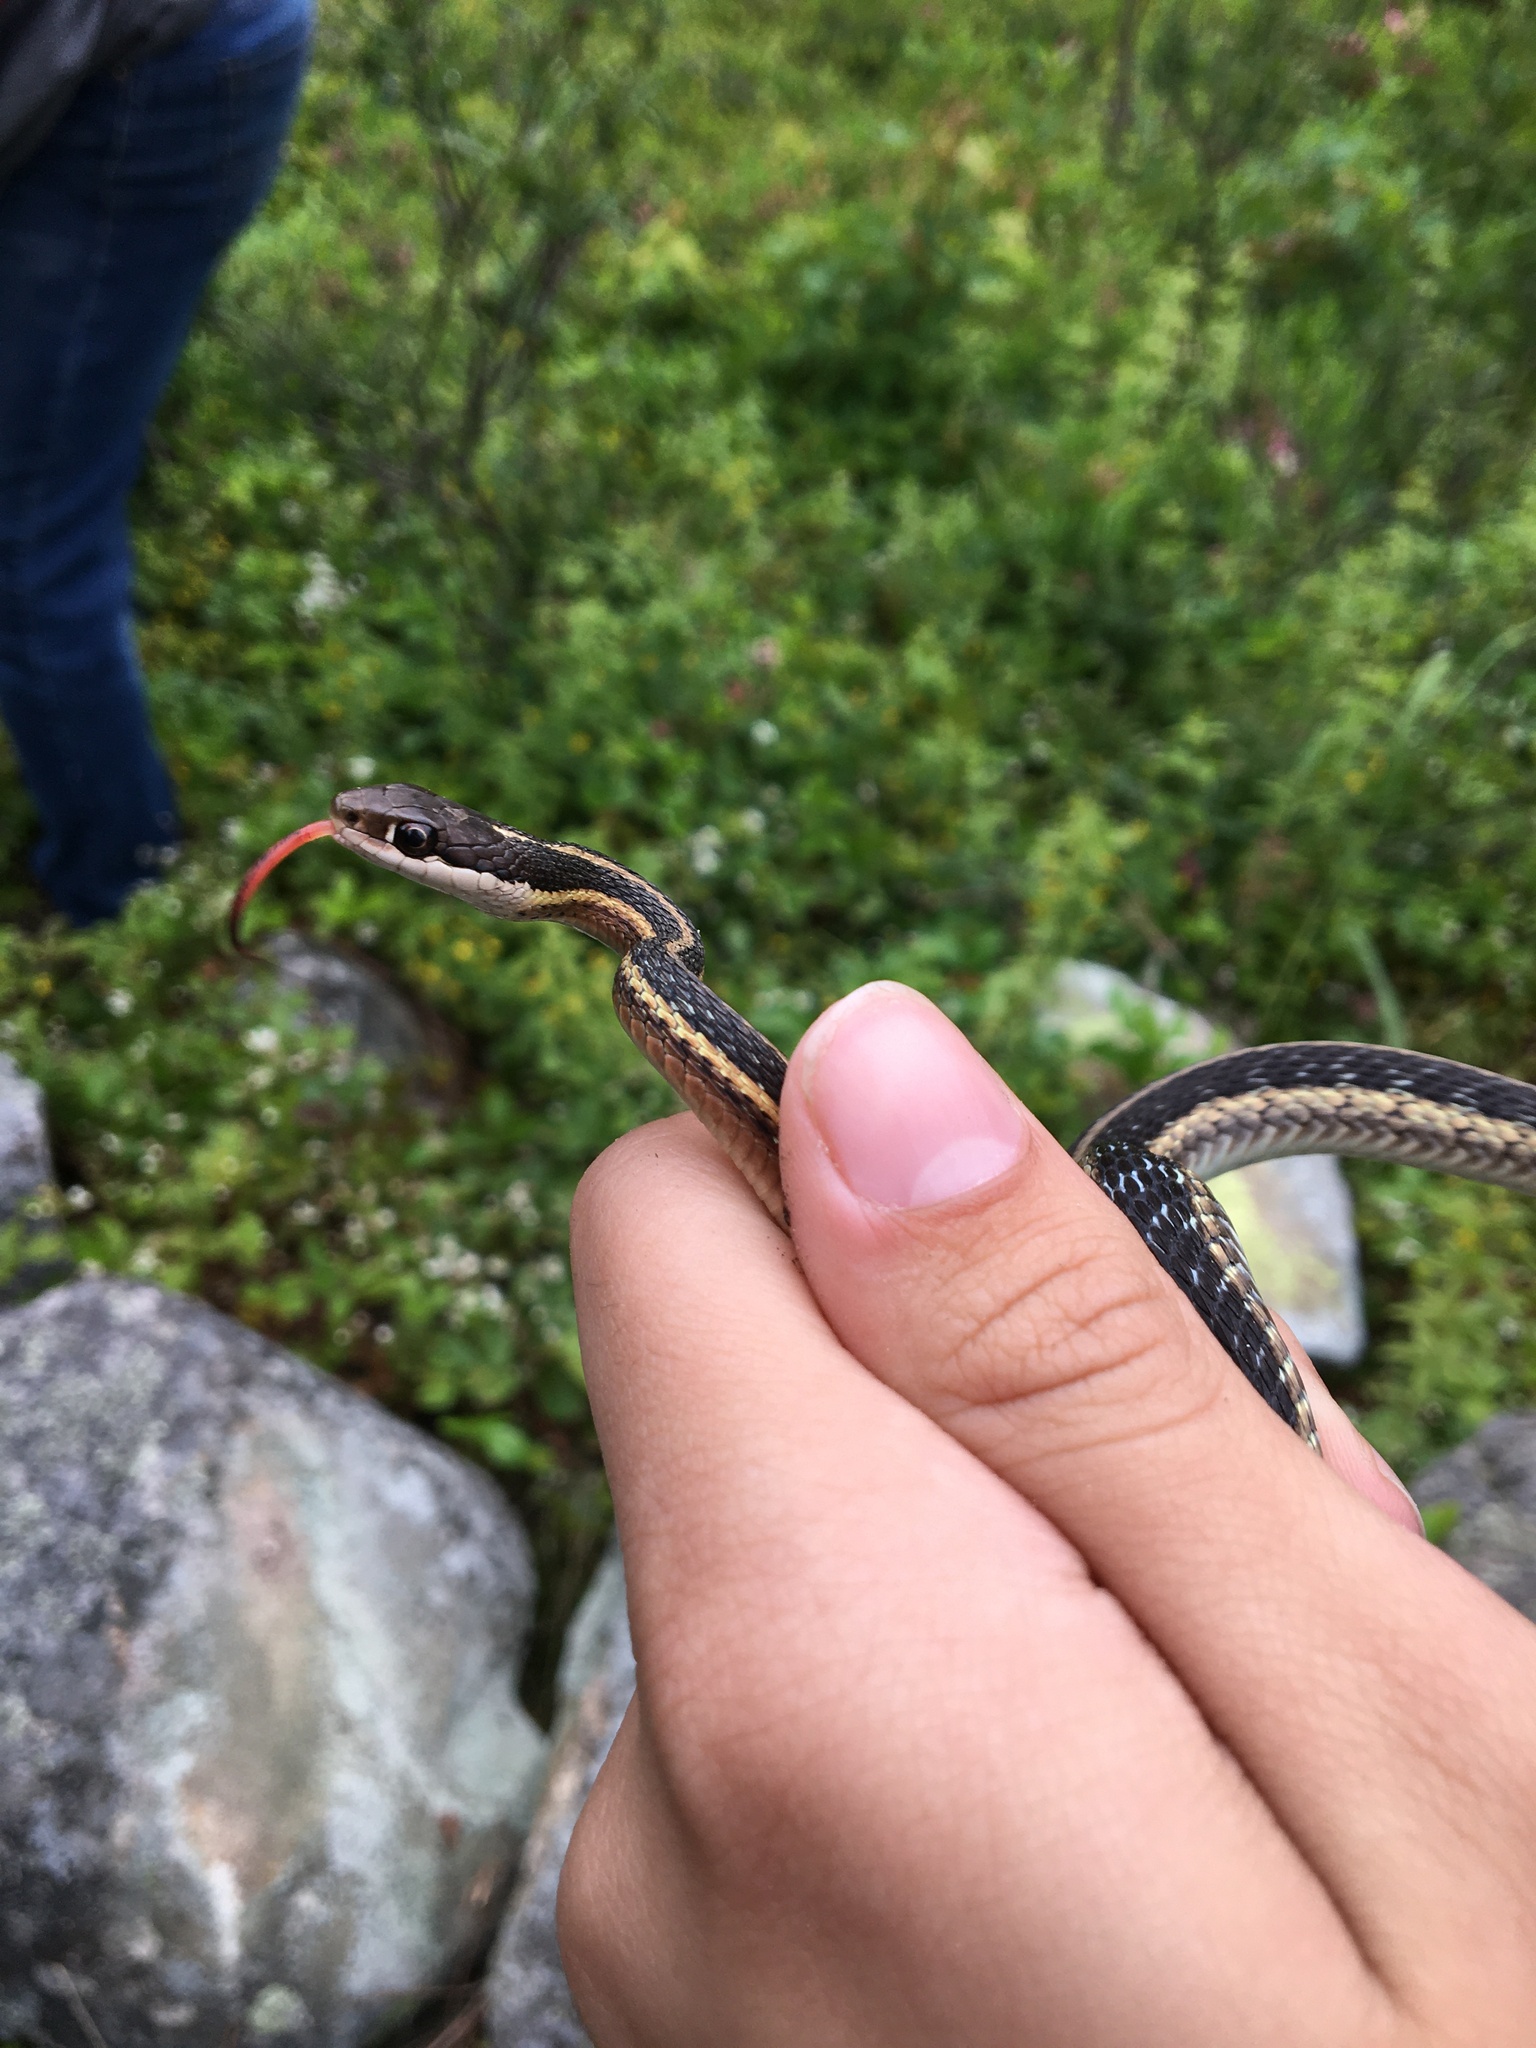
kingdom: Animalia
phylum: Chordata
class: Squamata
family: Colubridae
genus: Thamnophis
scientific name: Thamnophis saurita
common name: Eastern ribbonsnake
